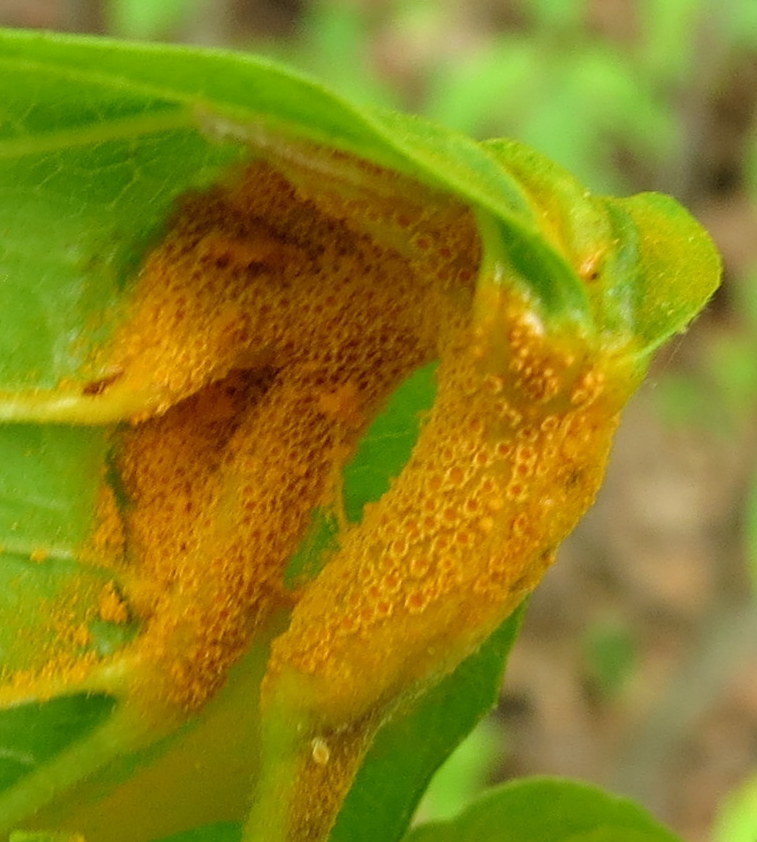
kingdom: Fungi
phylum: Basidiomycota
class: Pucciniomycetes
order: Pucciniales
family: Pucciniaceae
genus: Puccinia
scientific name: Puccinia coronata
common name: Crown rust
